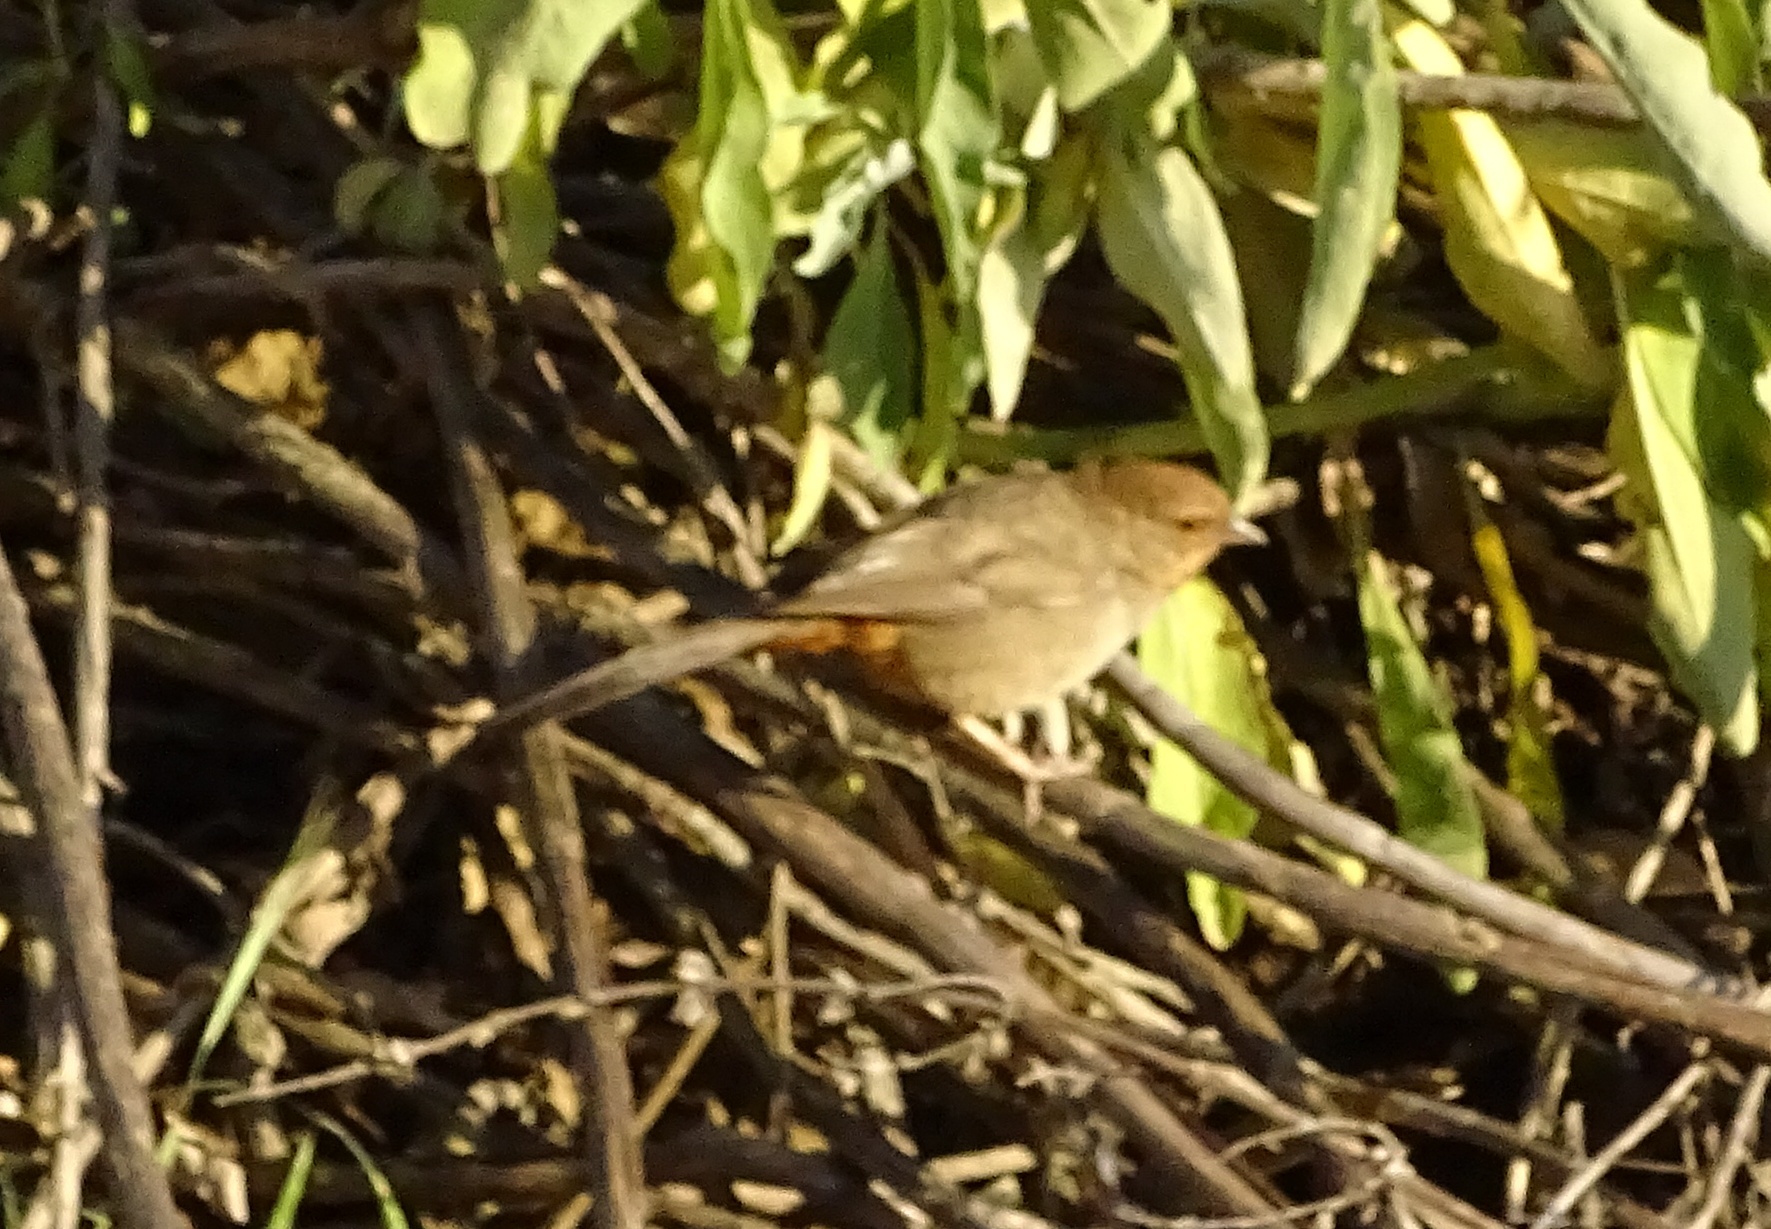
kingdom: Animalia
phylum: Chordata
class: Aves
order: Passeriformes
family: Passerellidae
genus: Melozone
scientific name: Melozone crissalis
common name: California towhee
